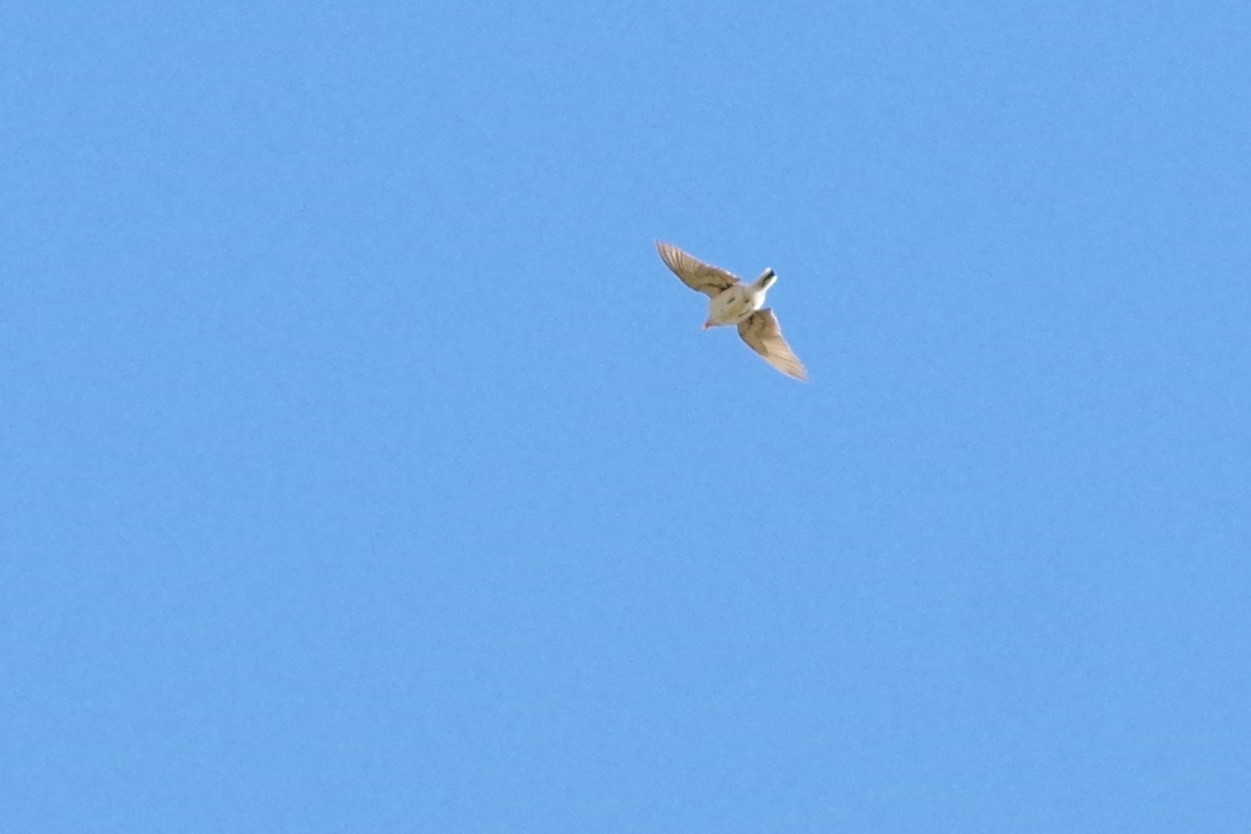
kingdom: Animalia
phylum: Chordata
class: Aves
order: Passeriformes
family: Motacillidae
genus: Anthus
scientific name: Anthus spragueii
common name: Sprague's pipit
